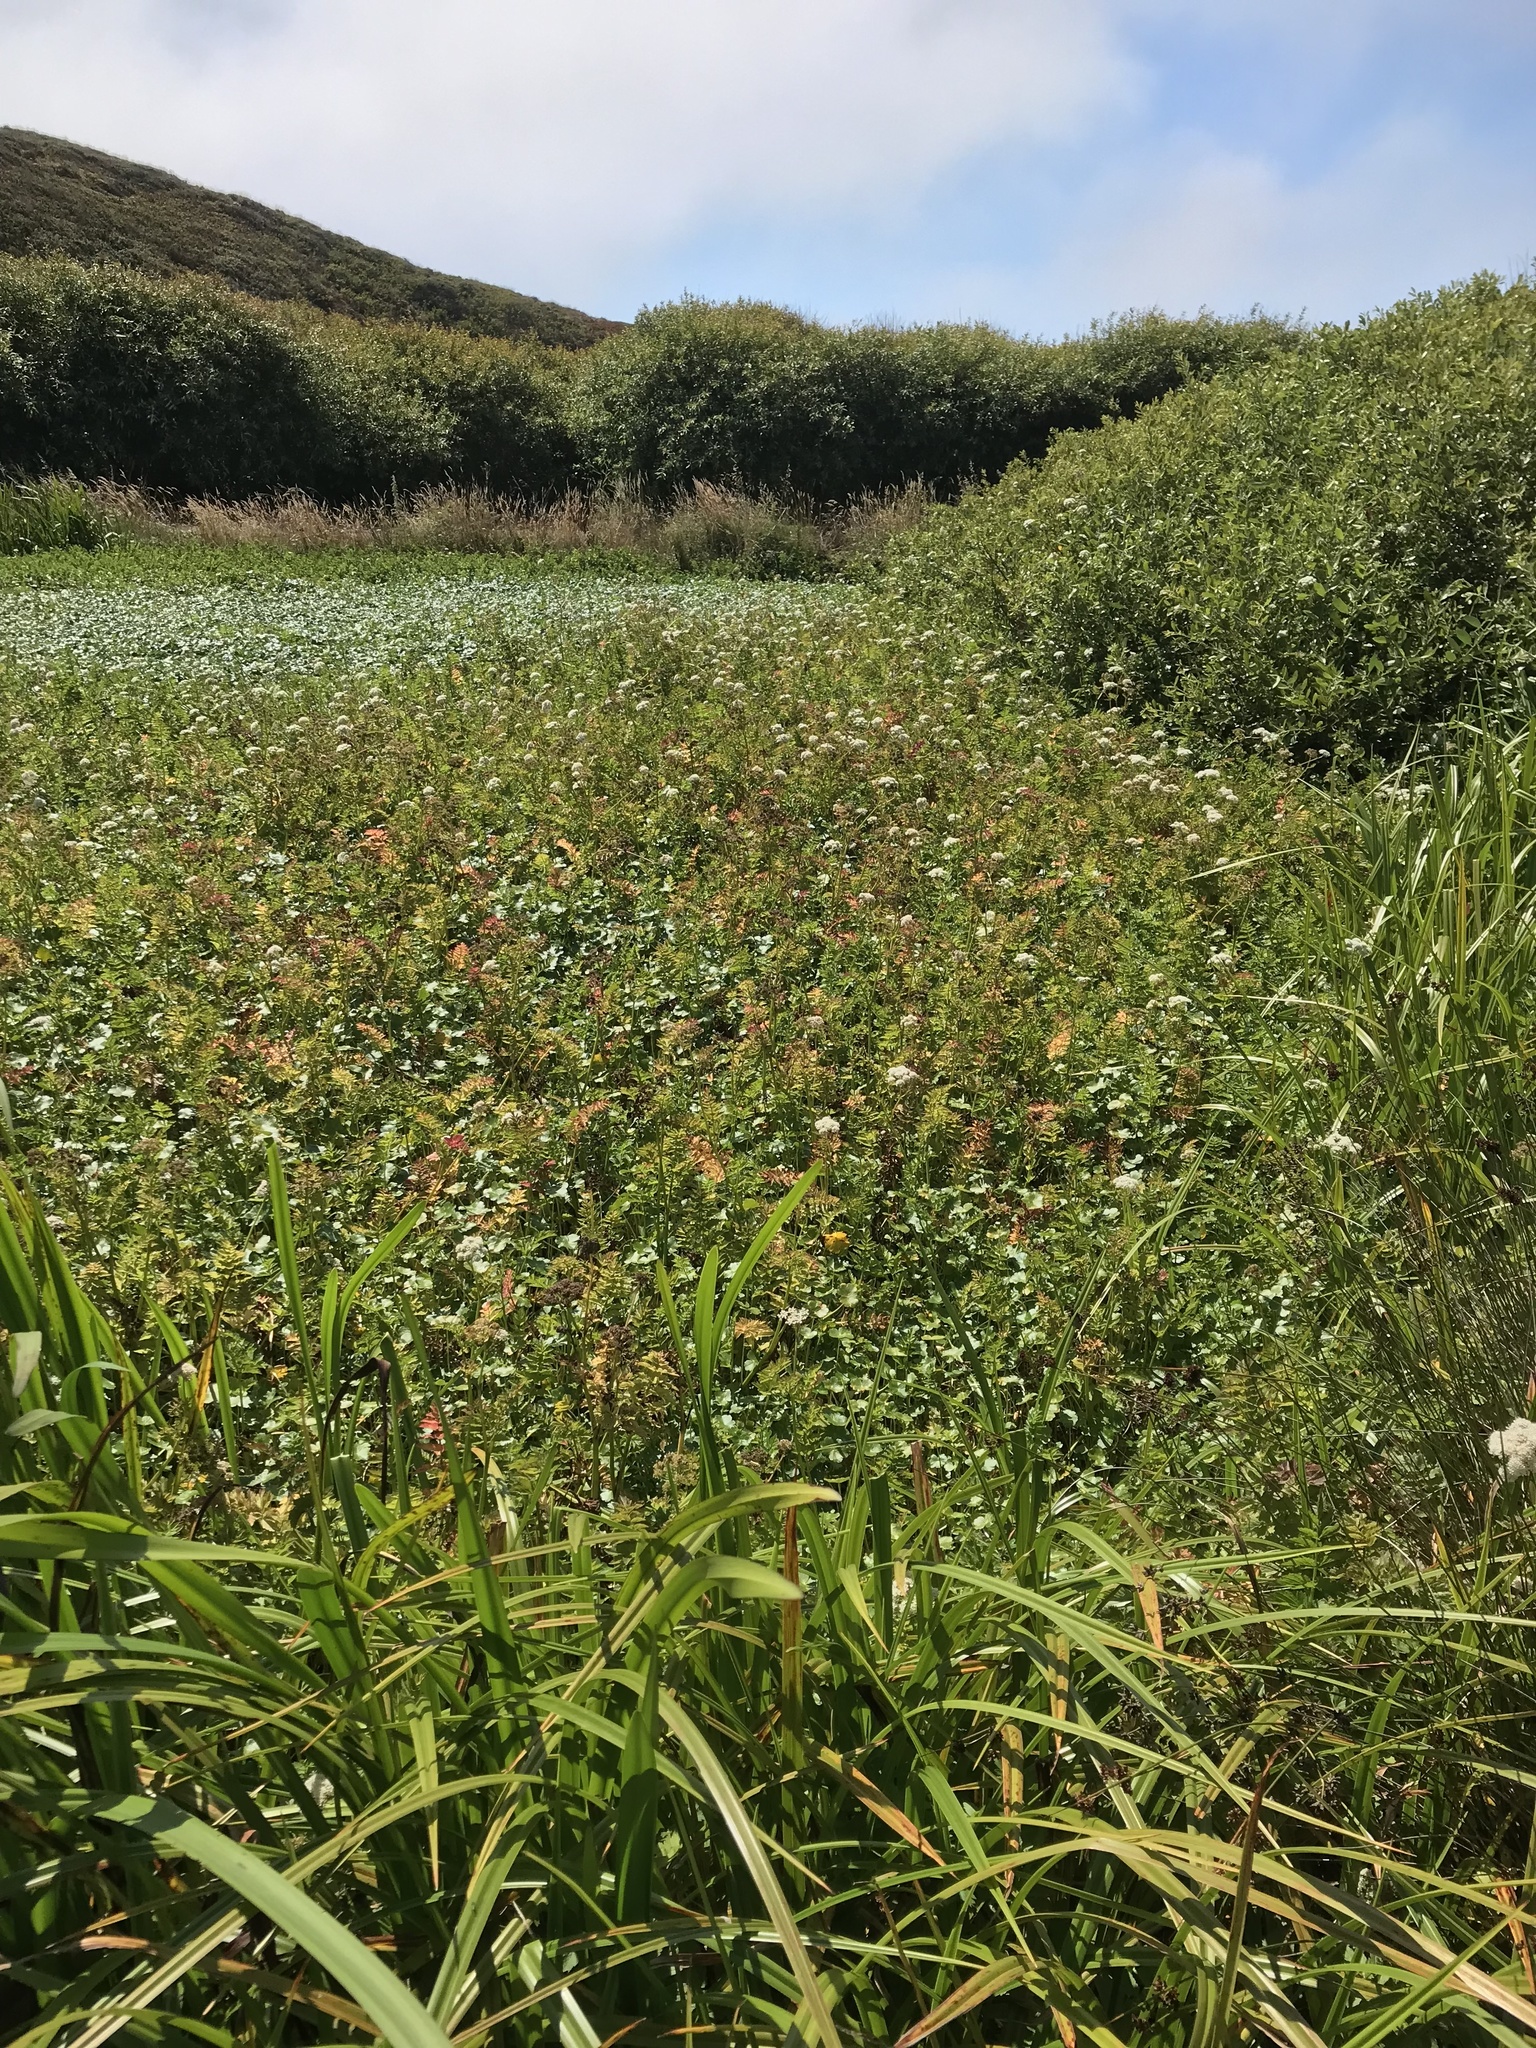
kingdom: Plantae
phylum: Tracheophyta
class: Magnoliopsida
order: Apiales
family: Apiaceae
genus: Oenanthe
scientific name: Oenanthe sarmentosa
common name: American water-parsley
